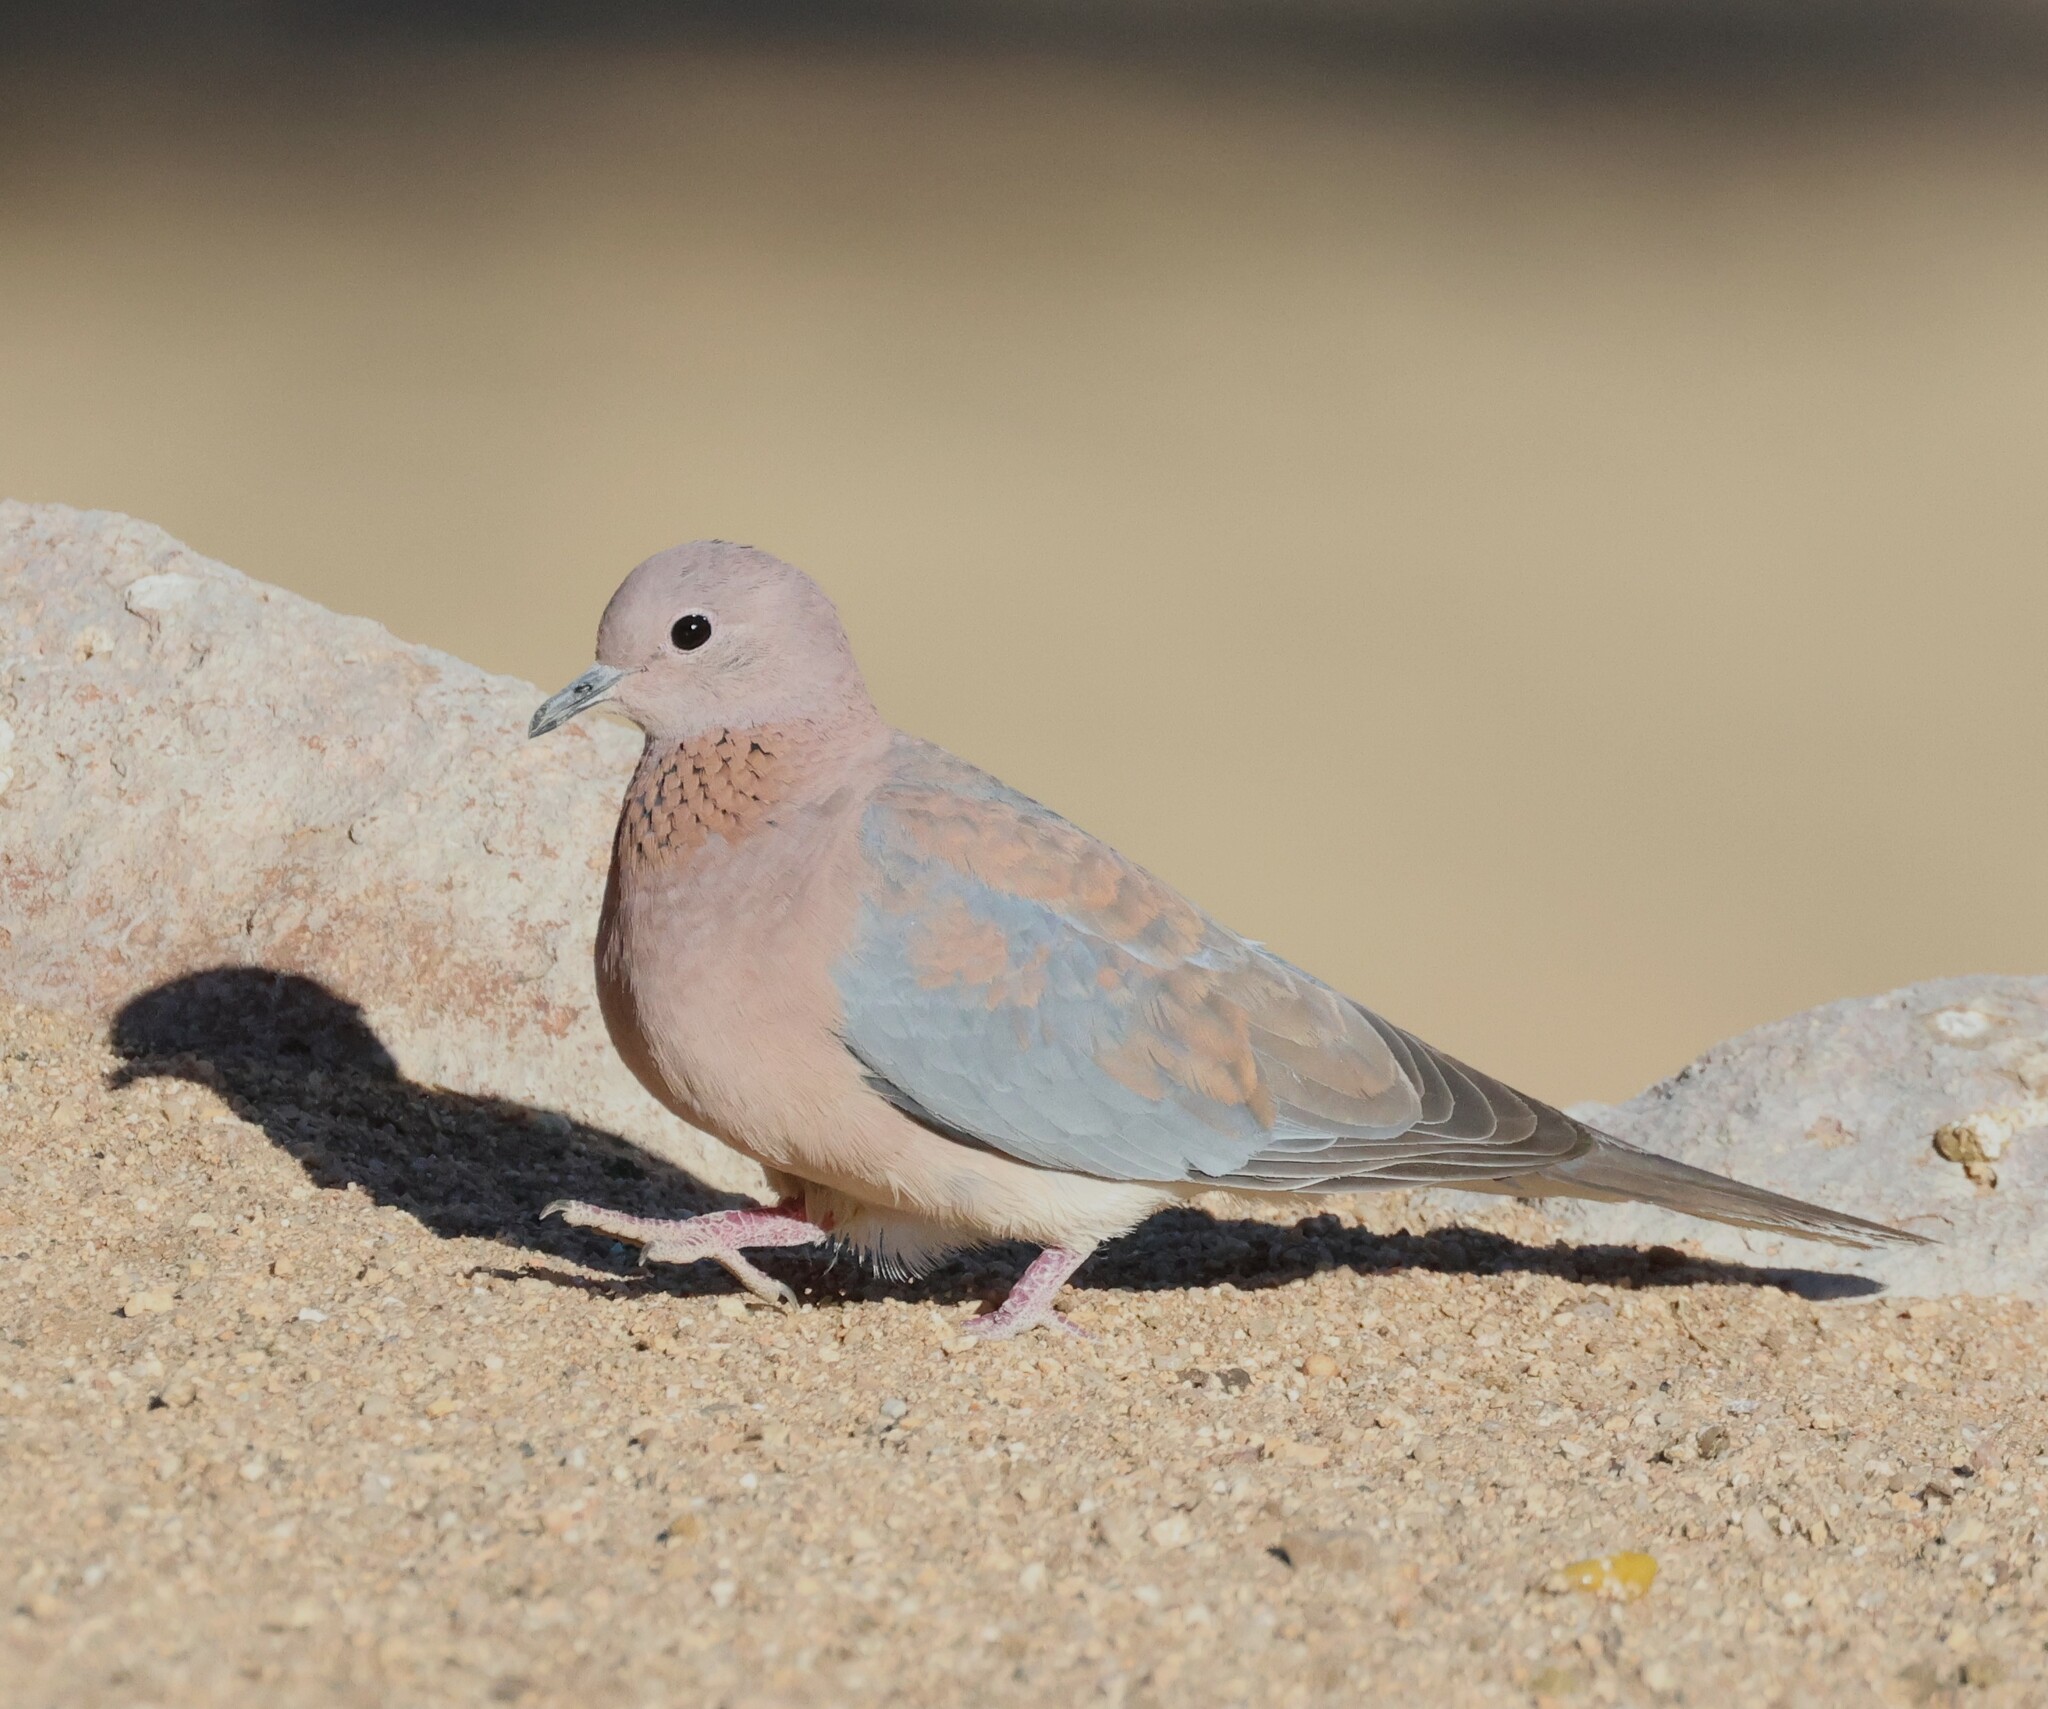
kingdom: Animalia
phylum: Chordata
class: Aves
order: Columbiformes
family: Columbidae
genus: Spilopelia
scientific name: Spilopelia senegalensis
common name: Laughing dove
